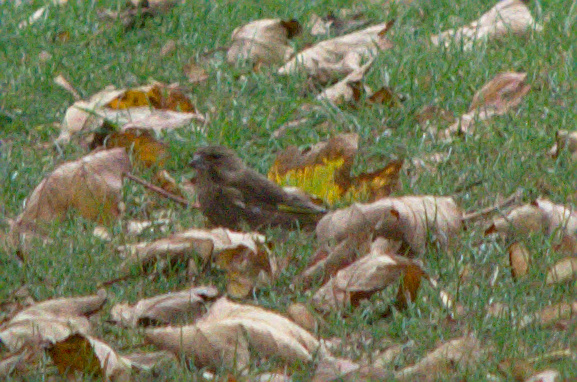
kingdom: Plantae
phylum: Tracheophyta
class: Liliopsida
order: Poales
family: Poaceae
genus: Chloris
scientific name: Chloris chloris
